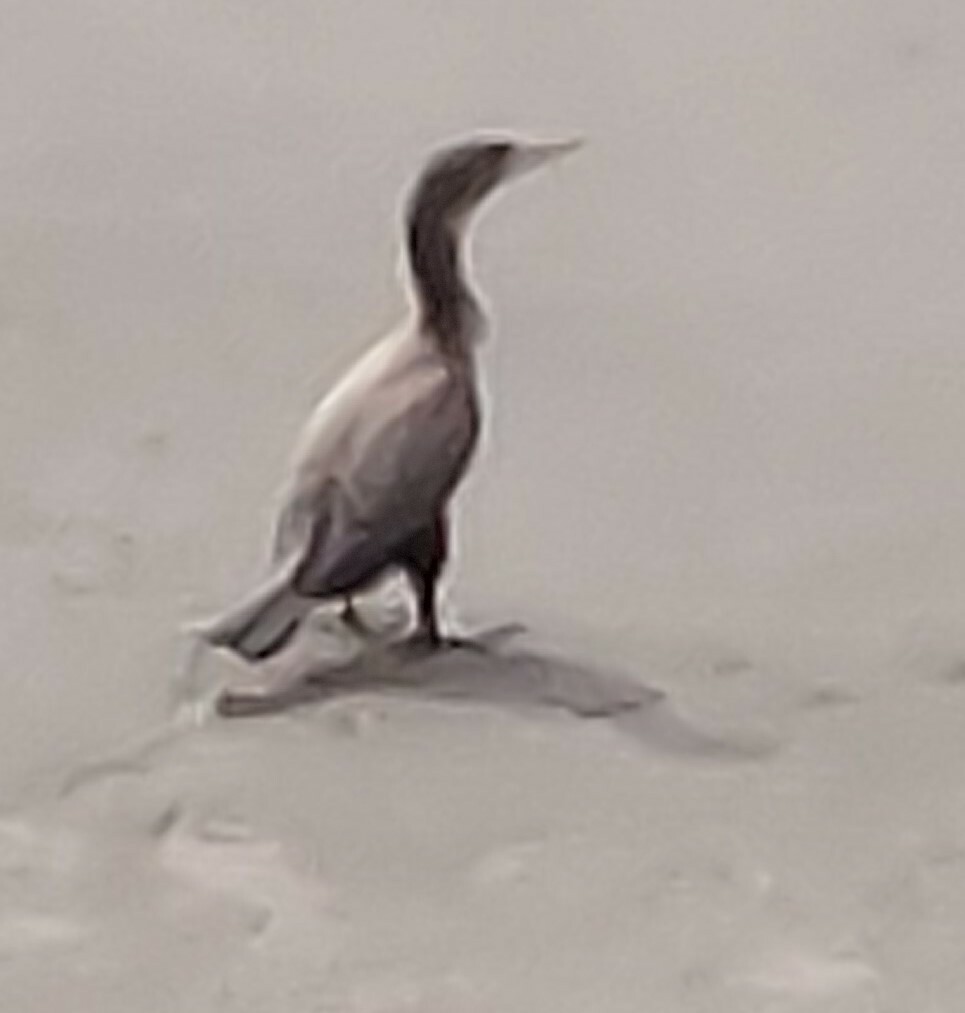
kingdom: Animalia
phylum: Chordata
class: Aves
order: Suliformes
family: Phalacrocoracidae
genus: Phalacrocorax
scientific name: Phalacrocorax varius
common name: Pied cormorant
